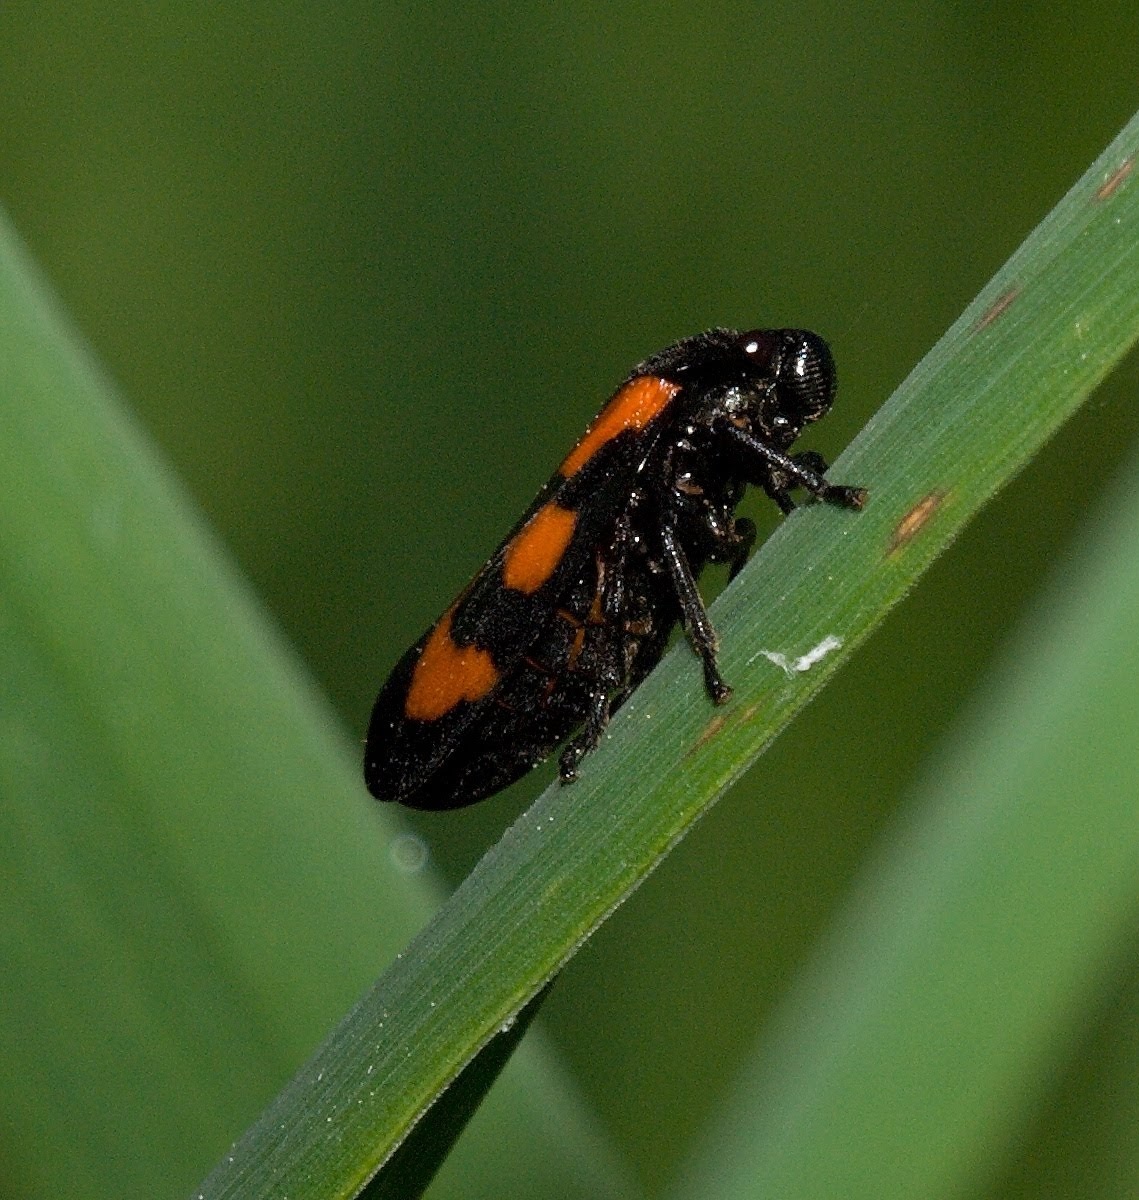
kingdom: Animalia
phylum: Arthropoda
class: Insecta
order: Hemiptera
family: Cercopidae
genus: Cercopis
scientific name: Cercopis vulnerata
